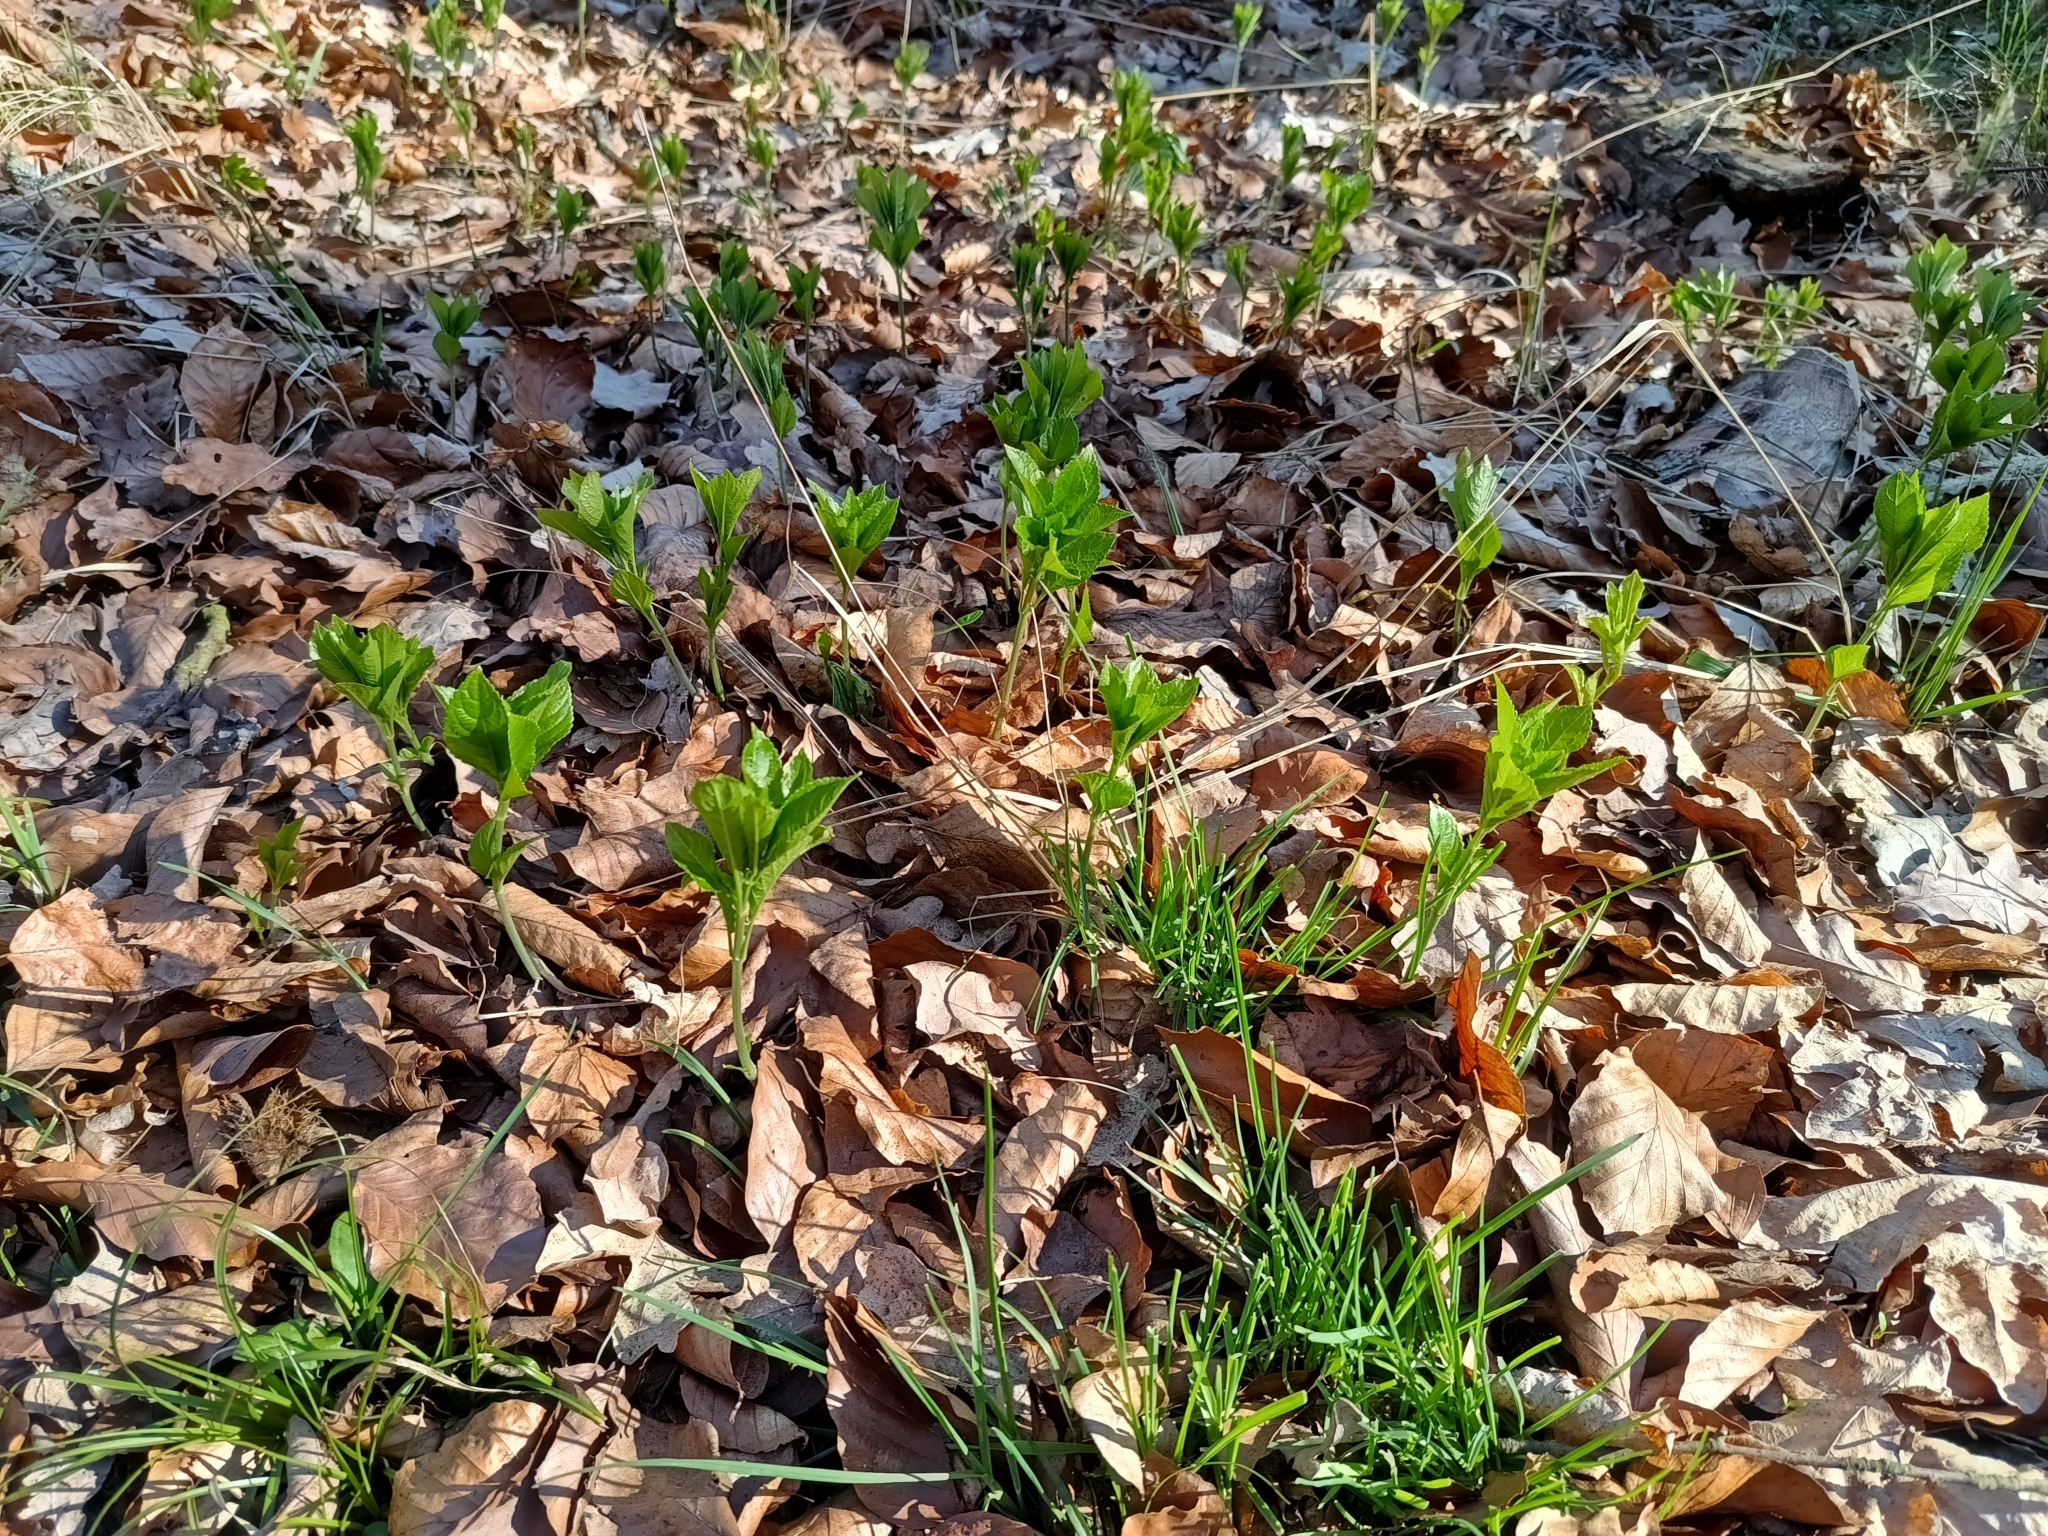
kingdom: Plantae
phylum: Tracheophyta
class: Magnoliopsida
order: Malpighiales
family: Euphorbiaceae
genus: Mercurialis
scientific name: Mercurialis perennis
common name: Dog mercury
